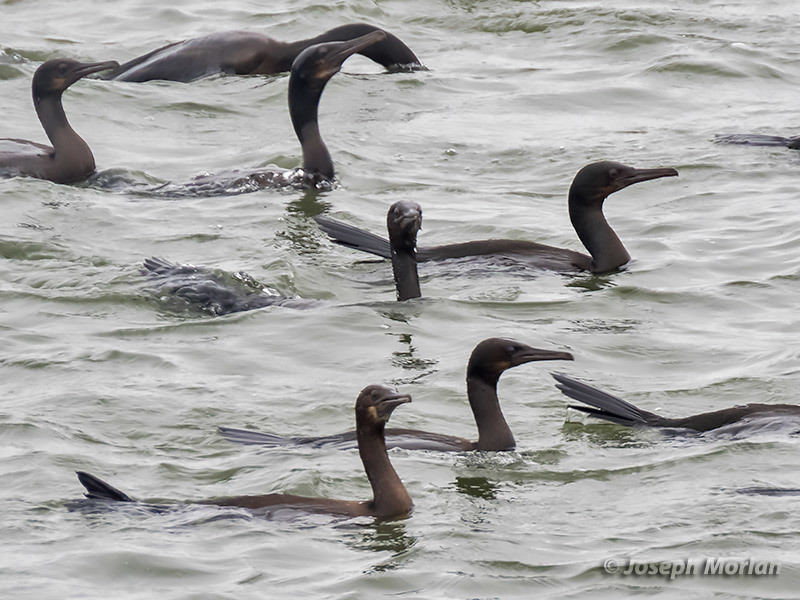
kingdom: Animalia
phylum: Chordata
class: Aves
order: Suliformes
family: Phalacrocoracidae
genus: Urile
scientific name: Urile penicillatus
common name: Brandt's cormorant
